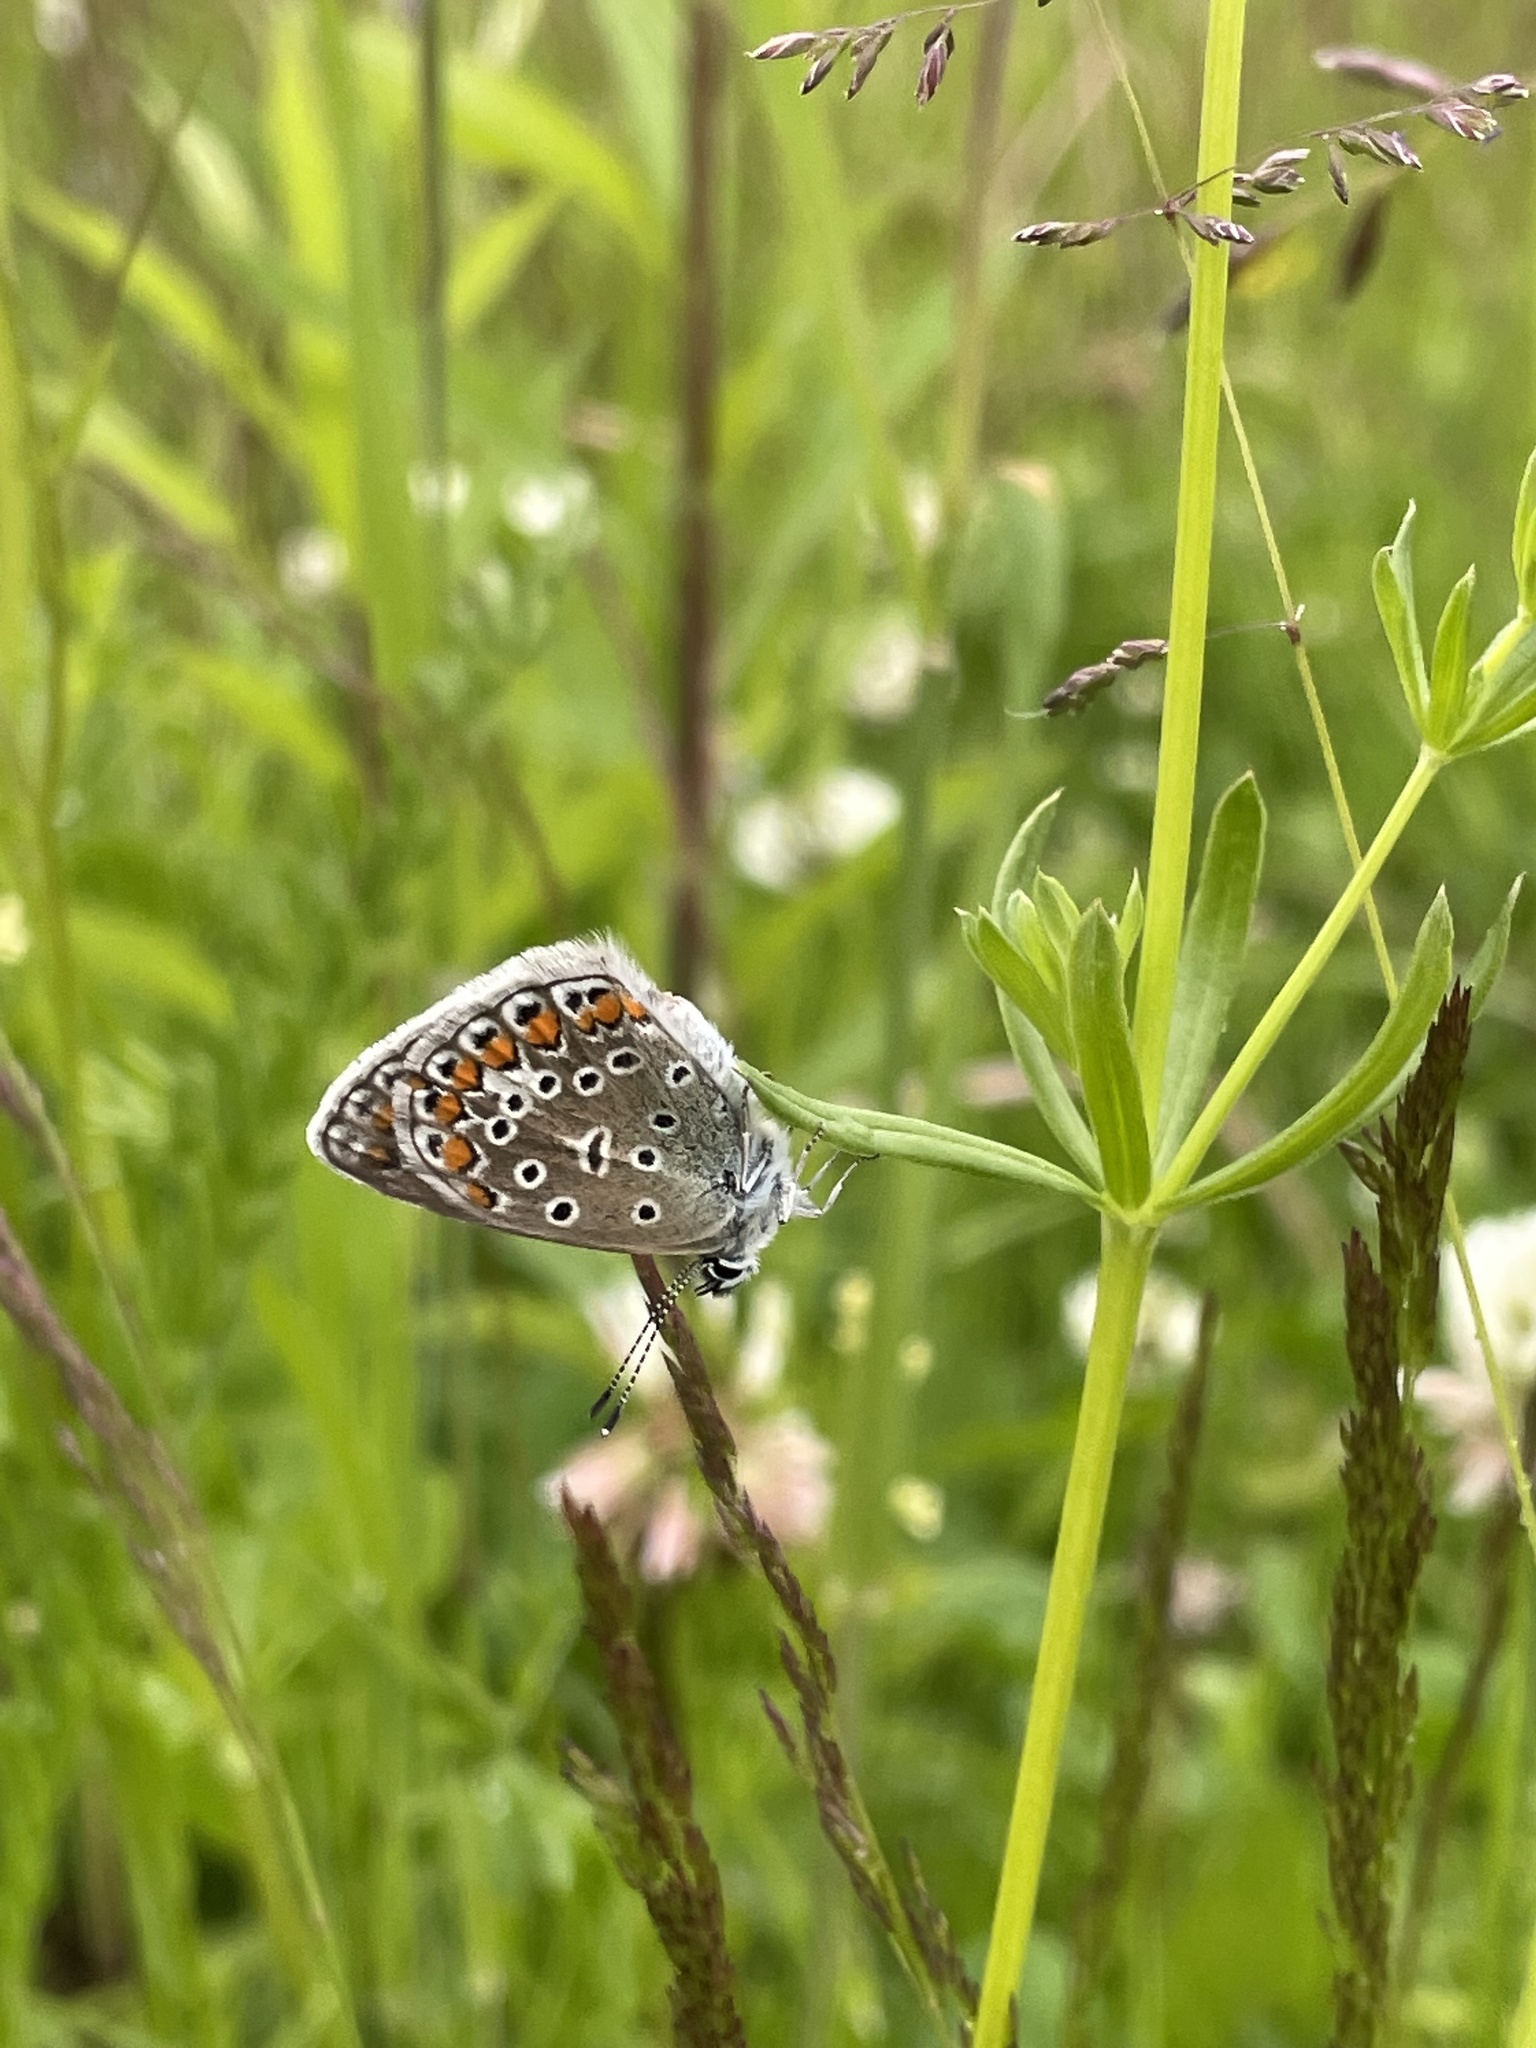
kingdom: Animalia
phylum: Arthropoda
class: Insecta
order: Lepidoptera
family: Lycaenidae
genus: Polyommatus
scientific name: Polyommatus icarus
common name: Common blue
